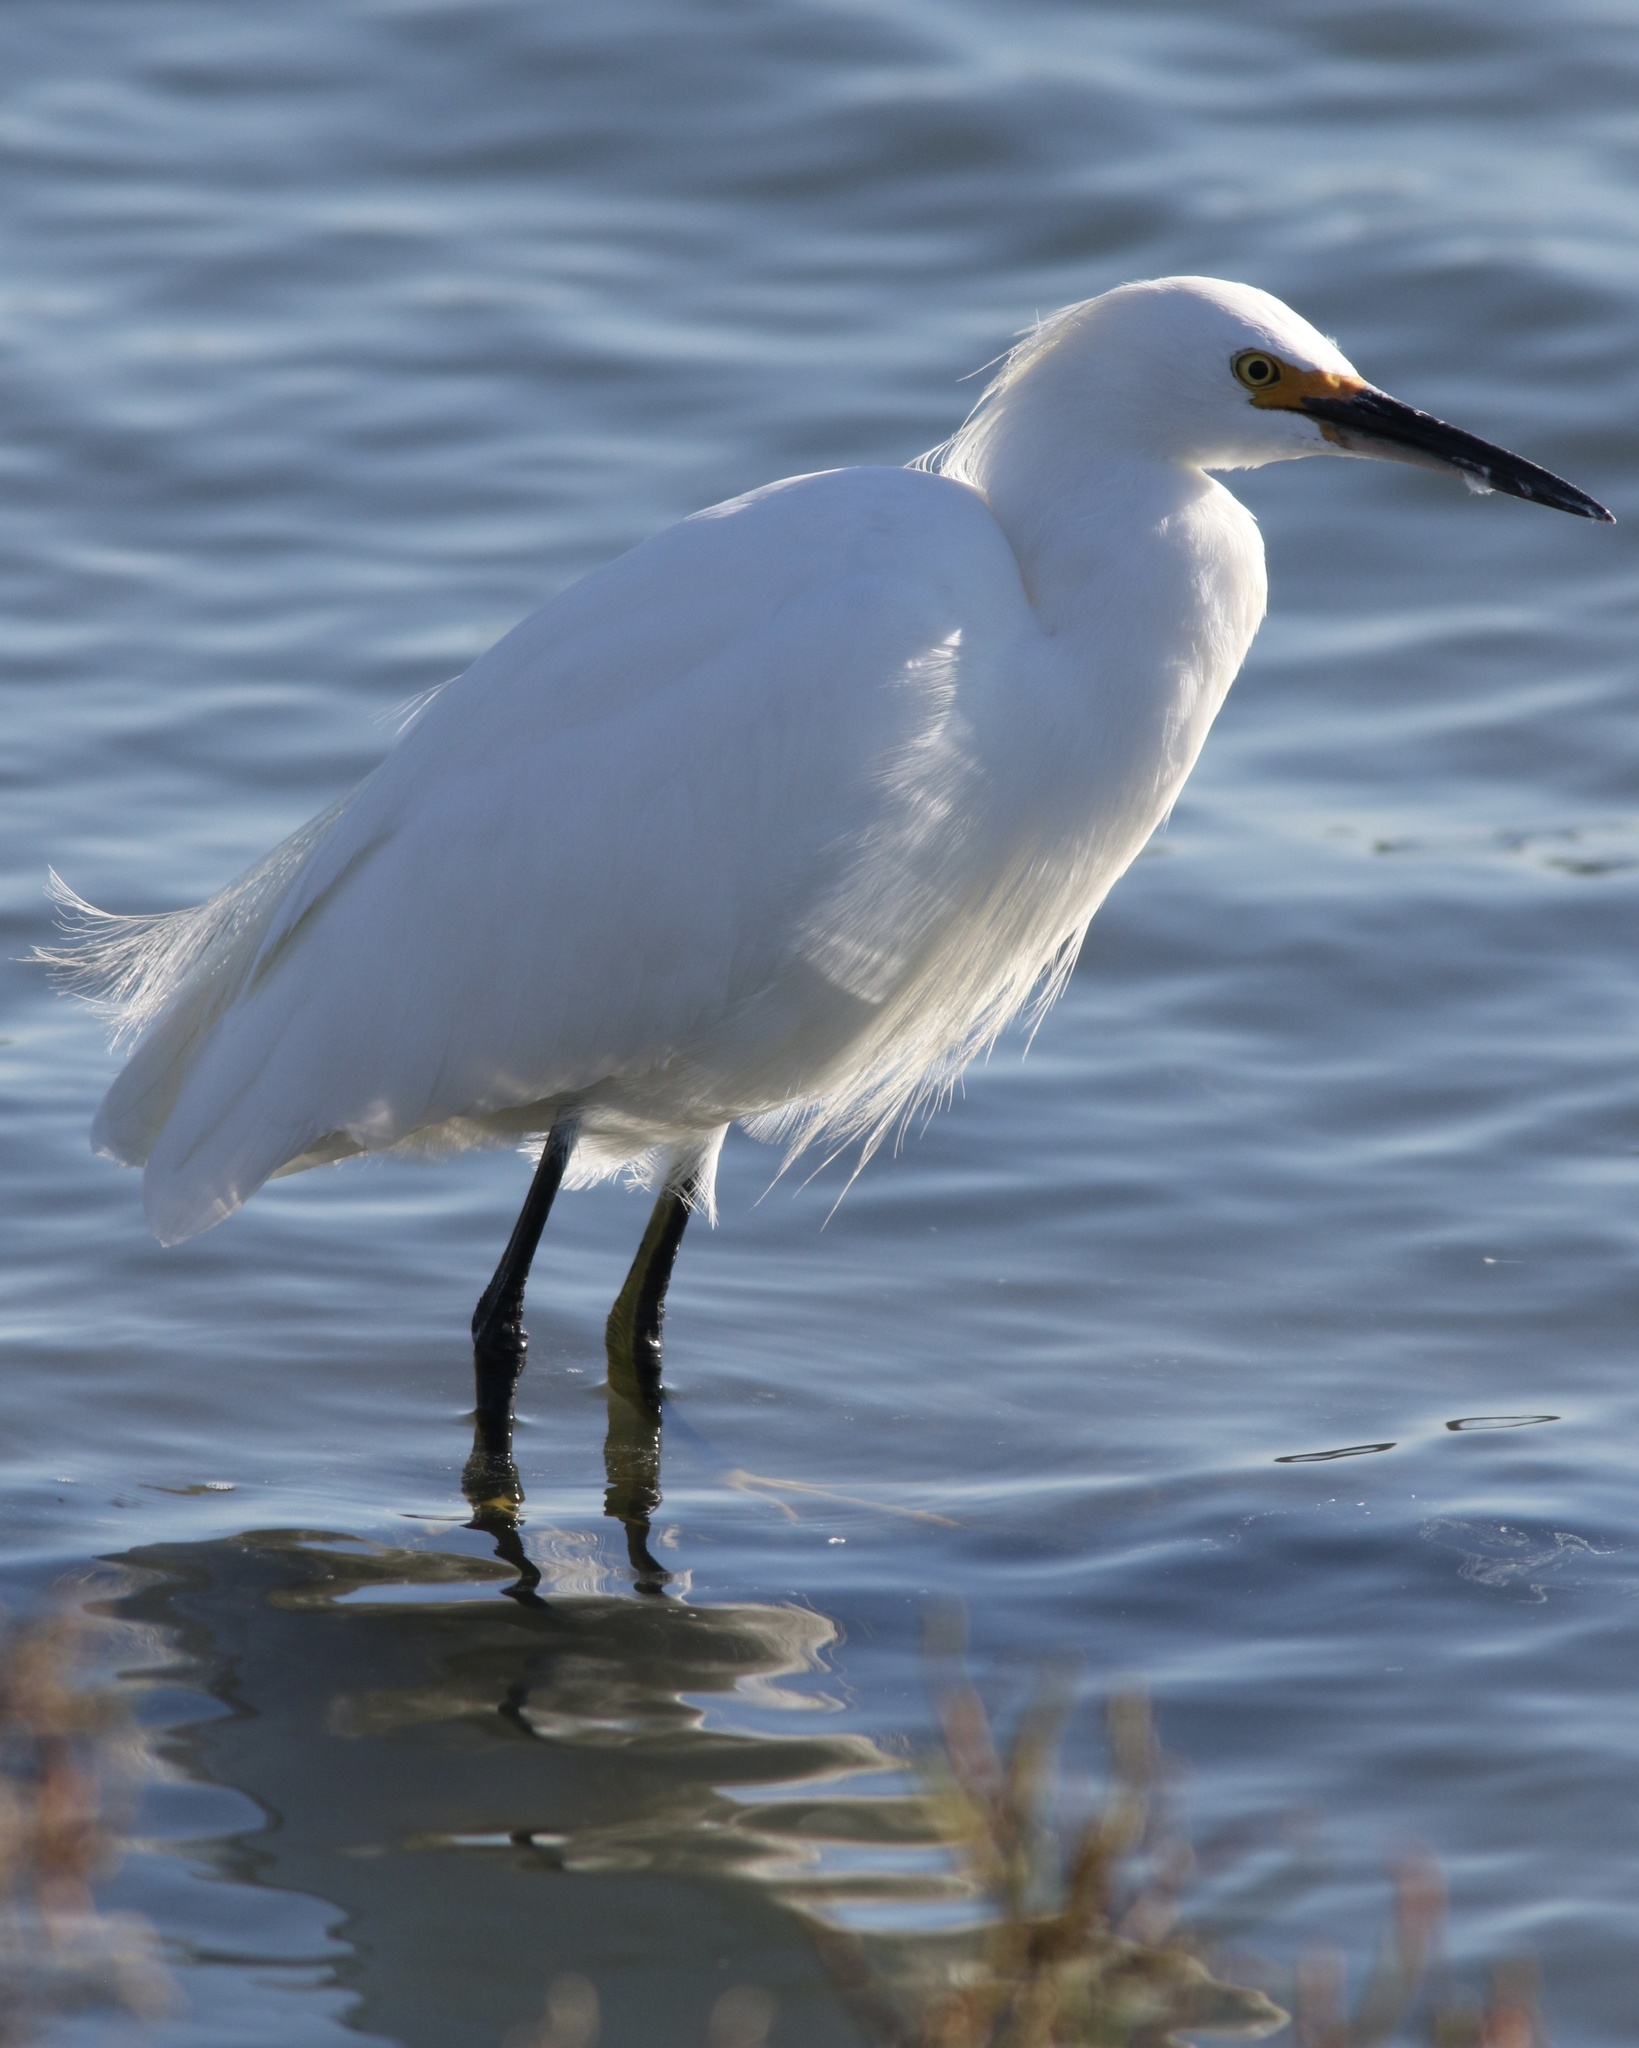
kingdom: Animalia
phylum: Chordata
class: Aves
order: Pelecaniformes
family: Ardeidae
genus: Egretta
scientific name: Egretta thula
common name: Snowy egret
